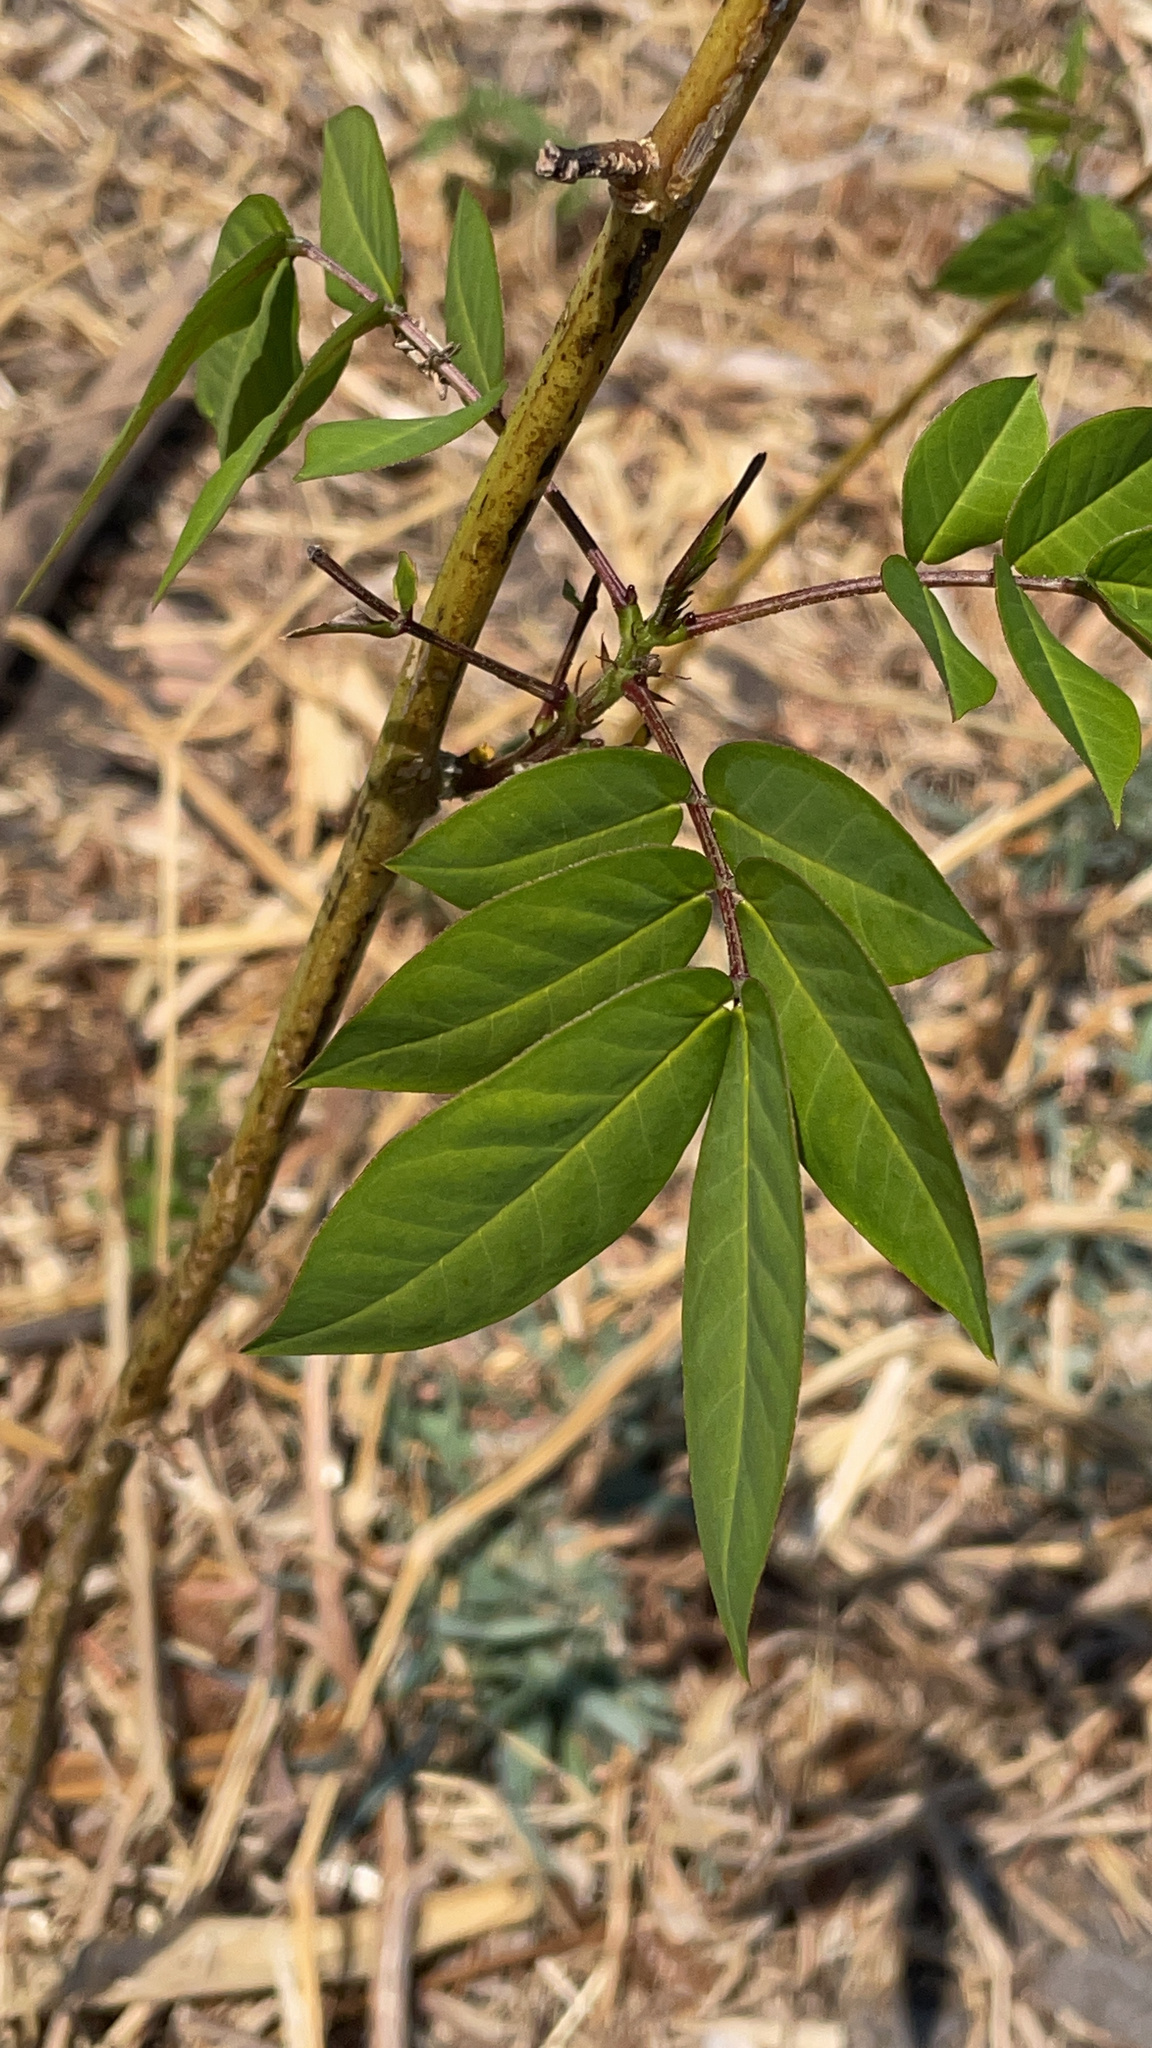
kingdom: Plantae
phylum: Tracheophyta
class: Magnoliopsida
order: Fabales
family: Fabaceae
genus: Senna
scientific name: Senna occidentalis
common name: Septicweed
